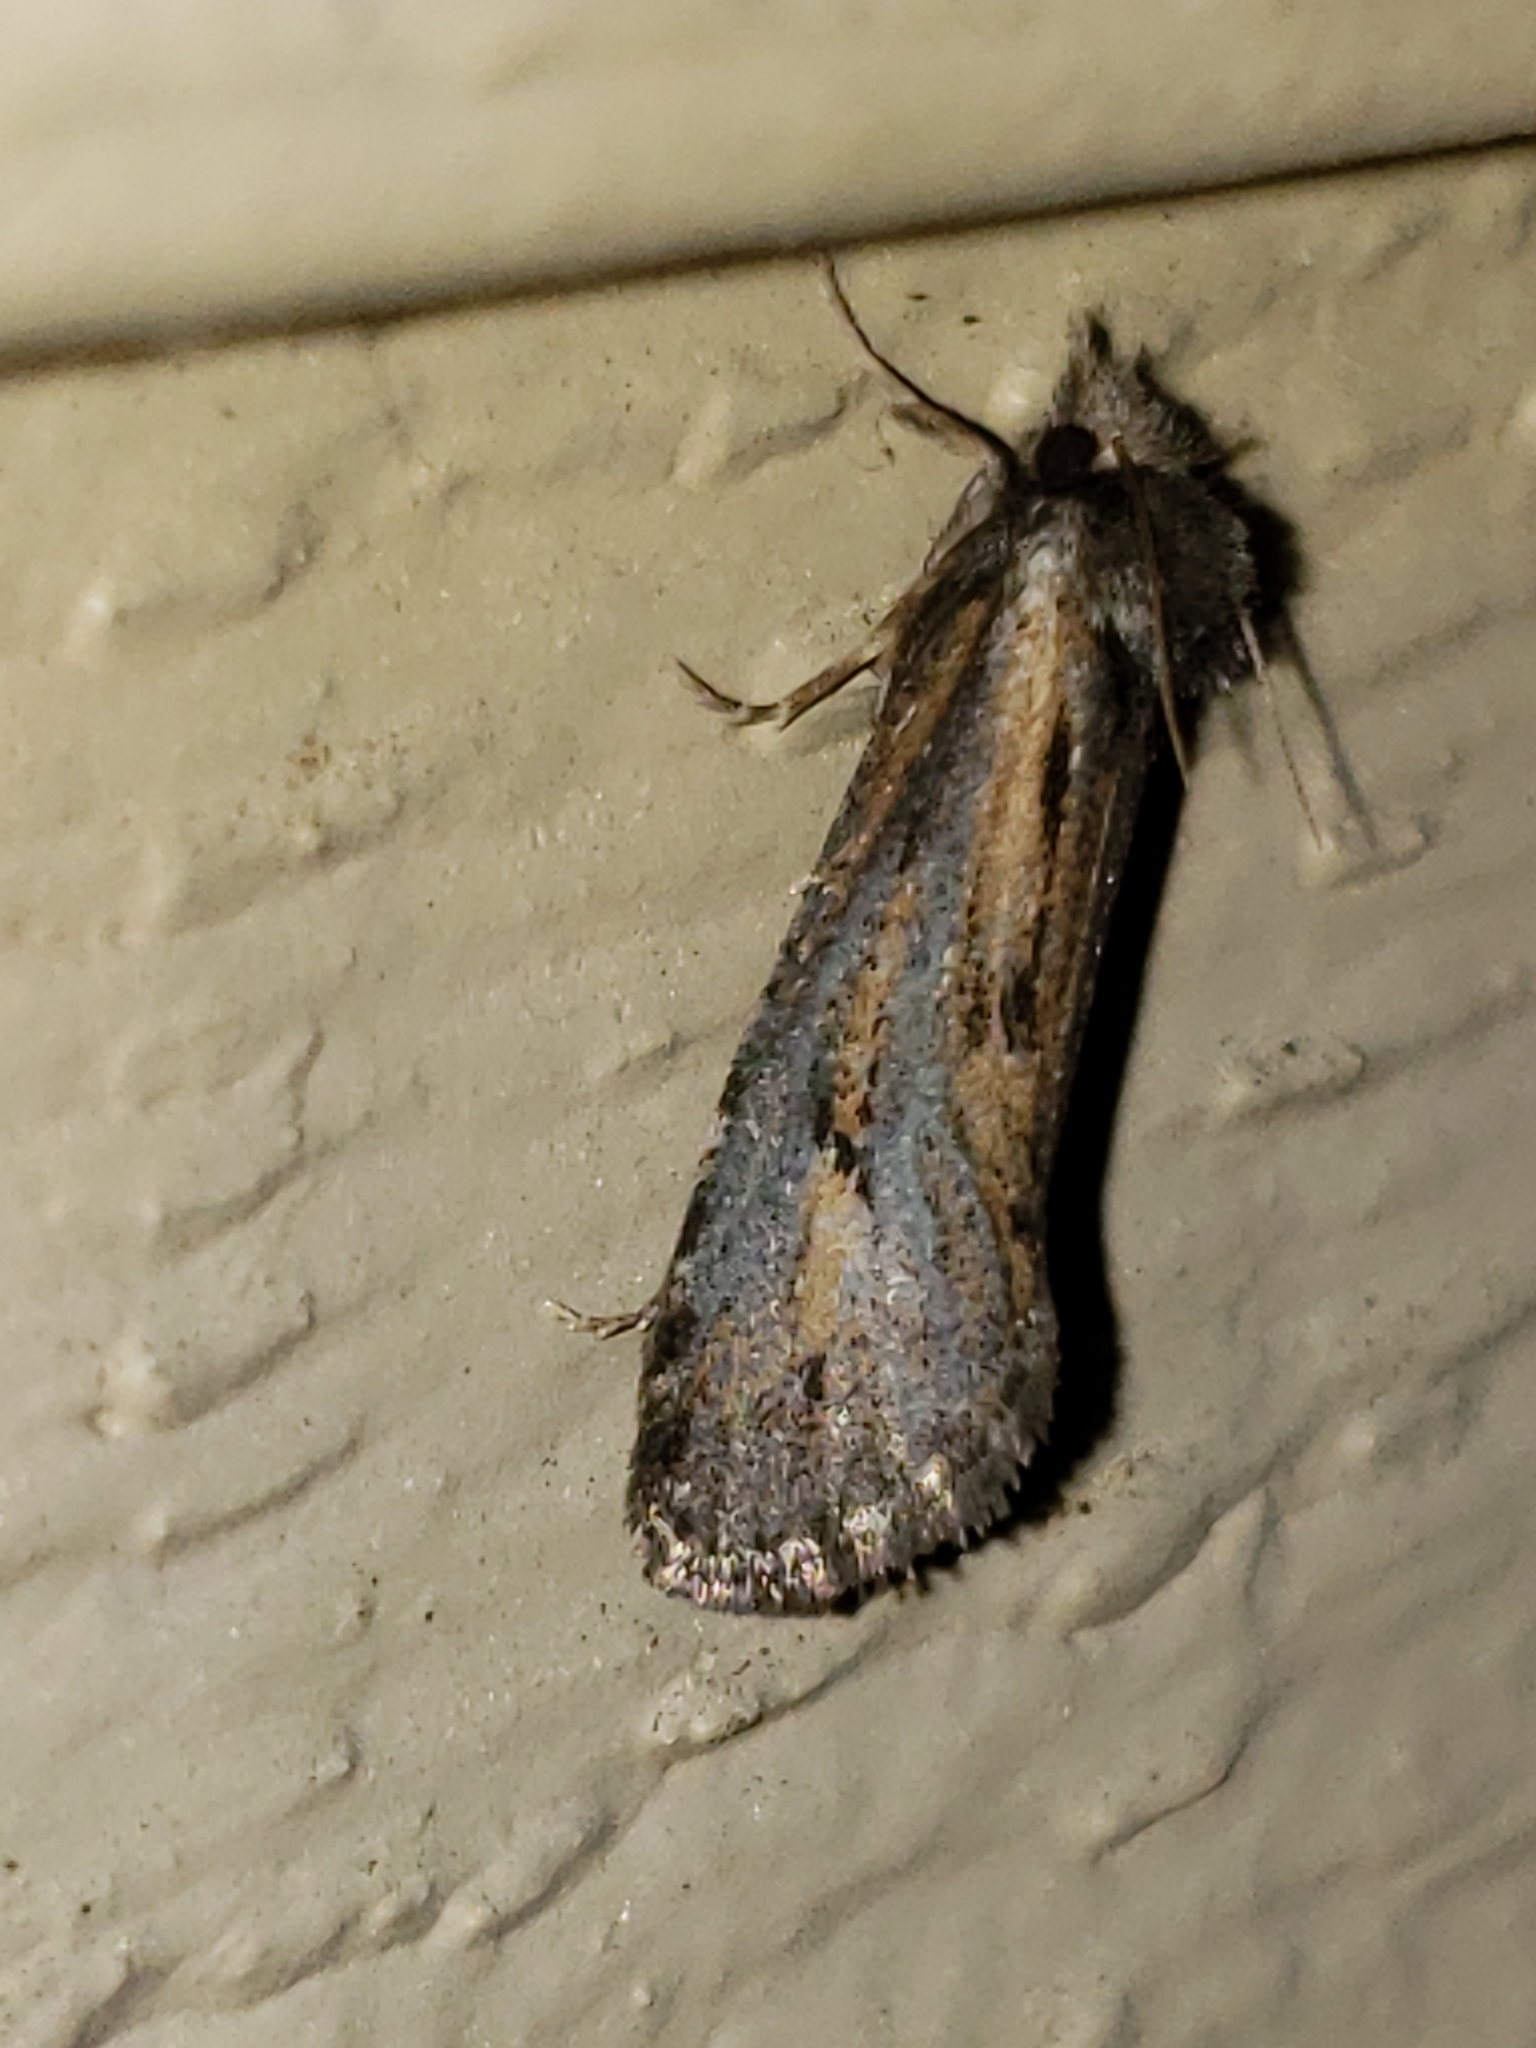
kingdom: Animalia
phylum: Arthropoda
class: Insecta
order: Lepidoptera
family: Tineidae
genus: Acrolophus
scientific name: Acrolophus popeanella
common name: Clemens' grass tubeworm moth
